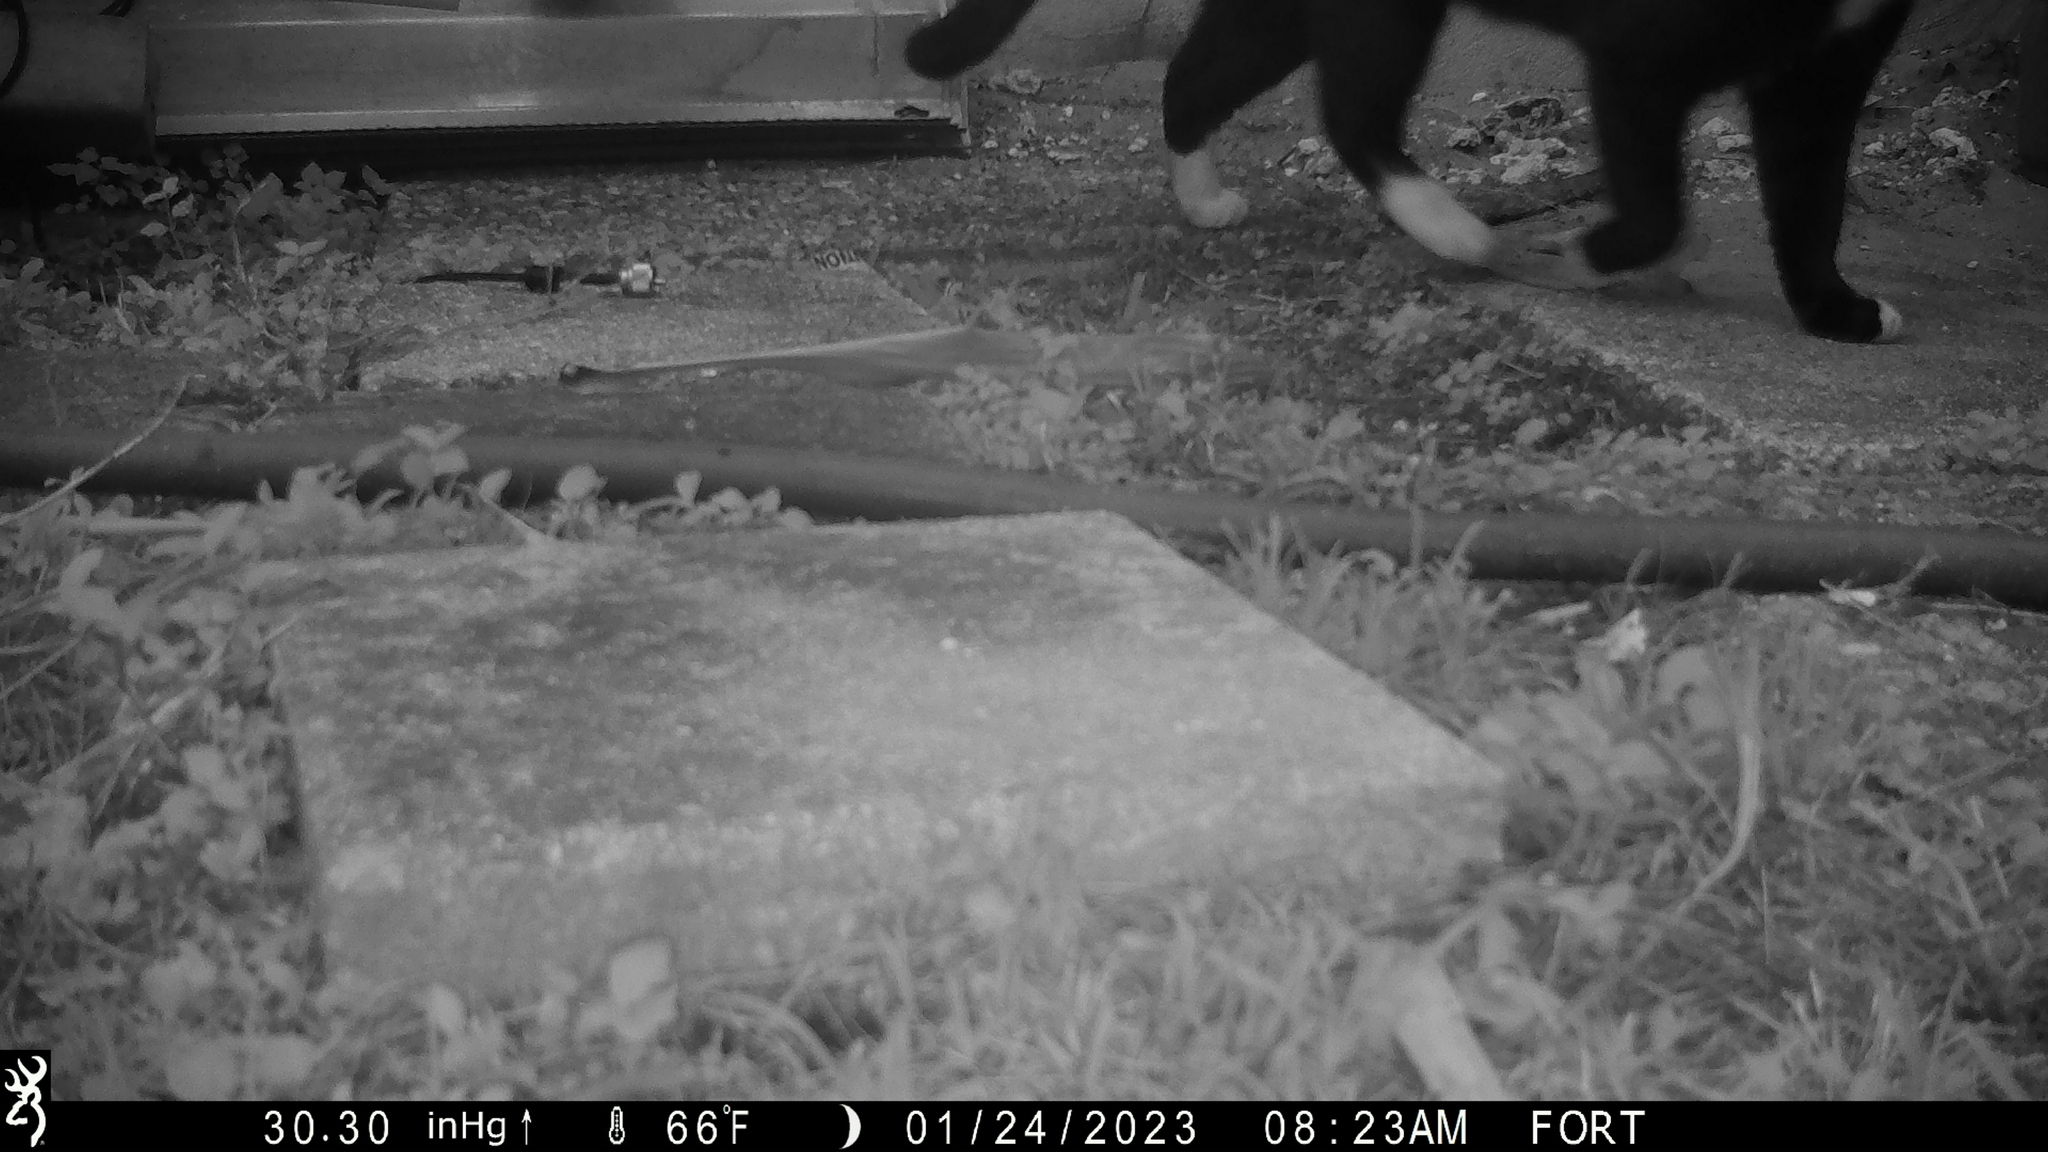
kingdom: Animalia
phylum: Chordata
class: Mammalia
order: Carnivora
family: Felidae
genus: Felis
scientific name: Felis catus
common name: Domestic cat
